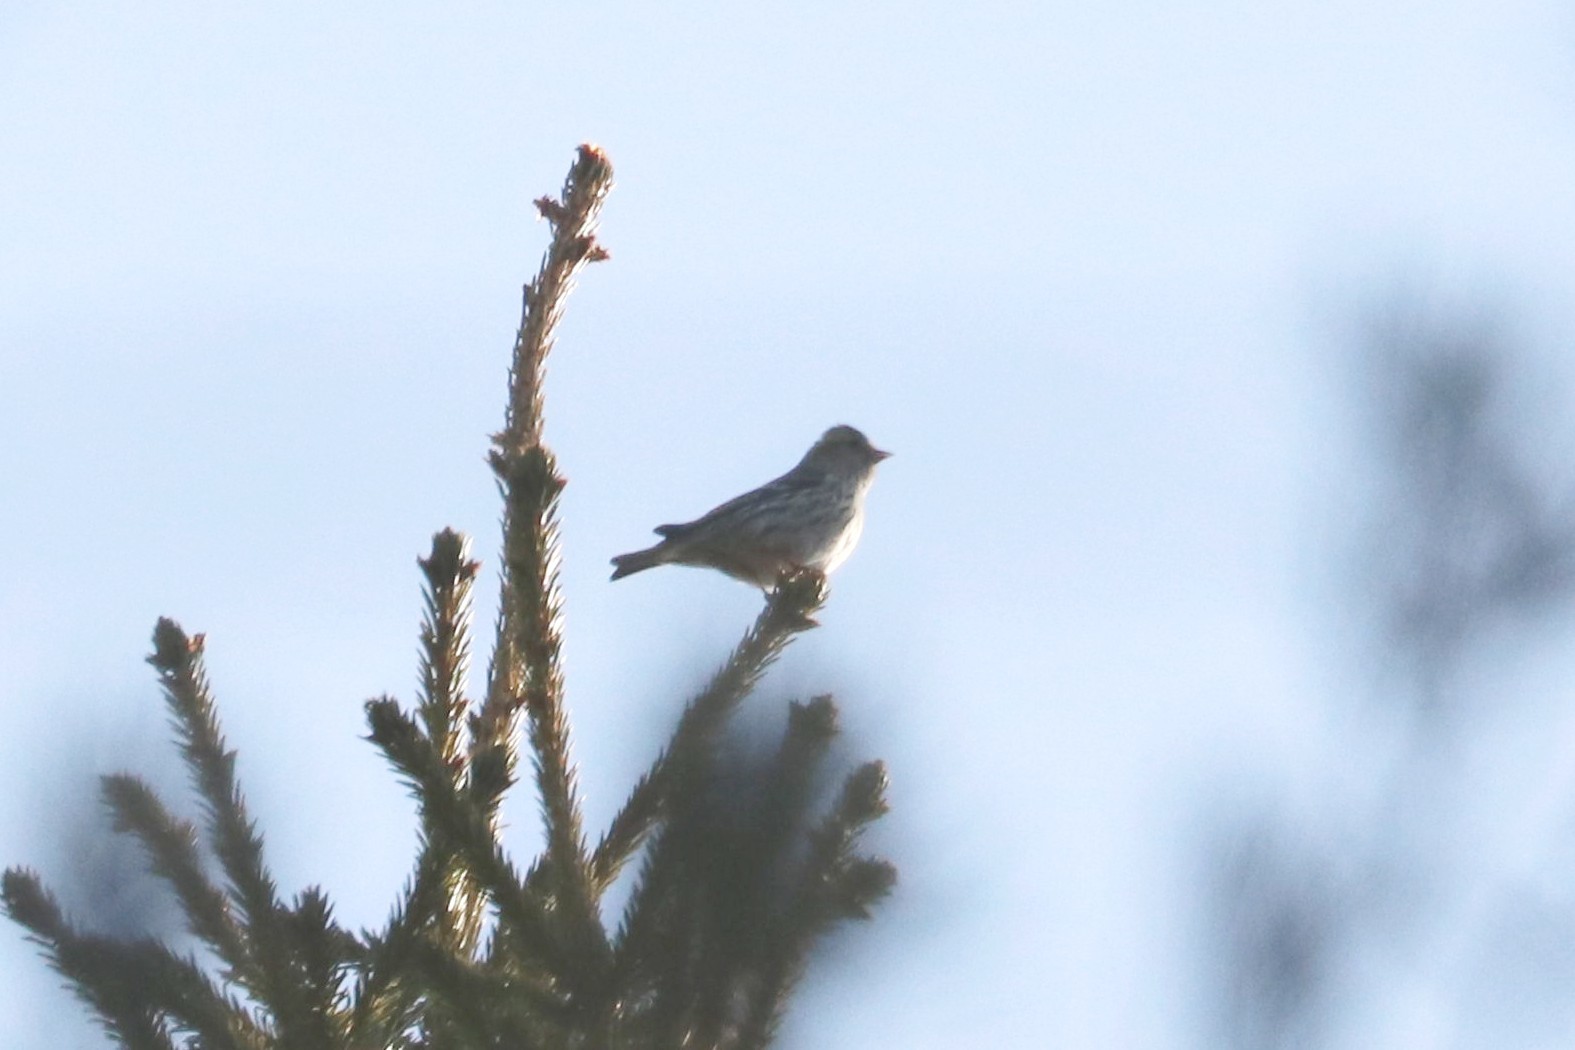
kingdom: Animalia
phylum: Chordata
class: Aves
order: Passeriformes
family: Fringillidae
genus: Spinus
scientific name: Spinus spinus
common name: Eurasian siskin
